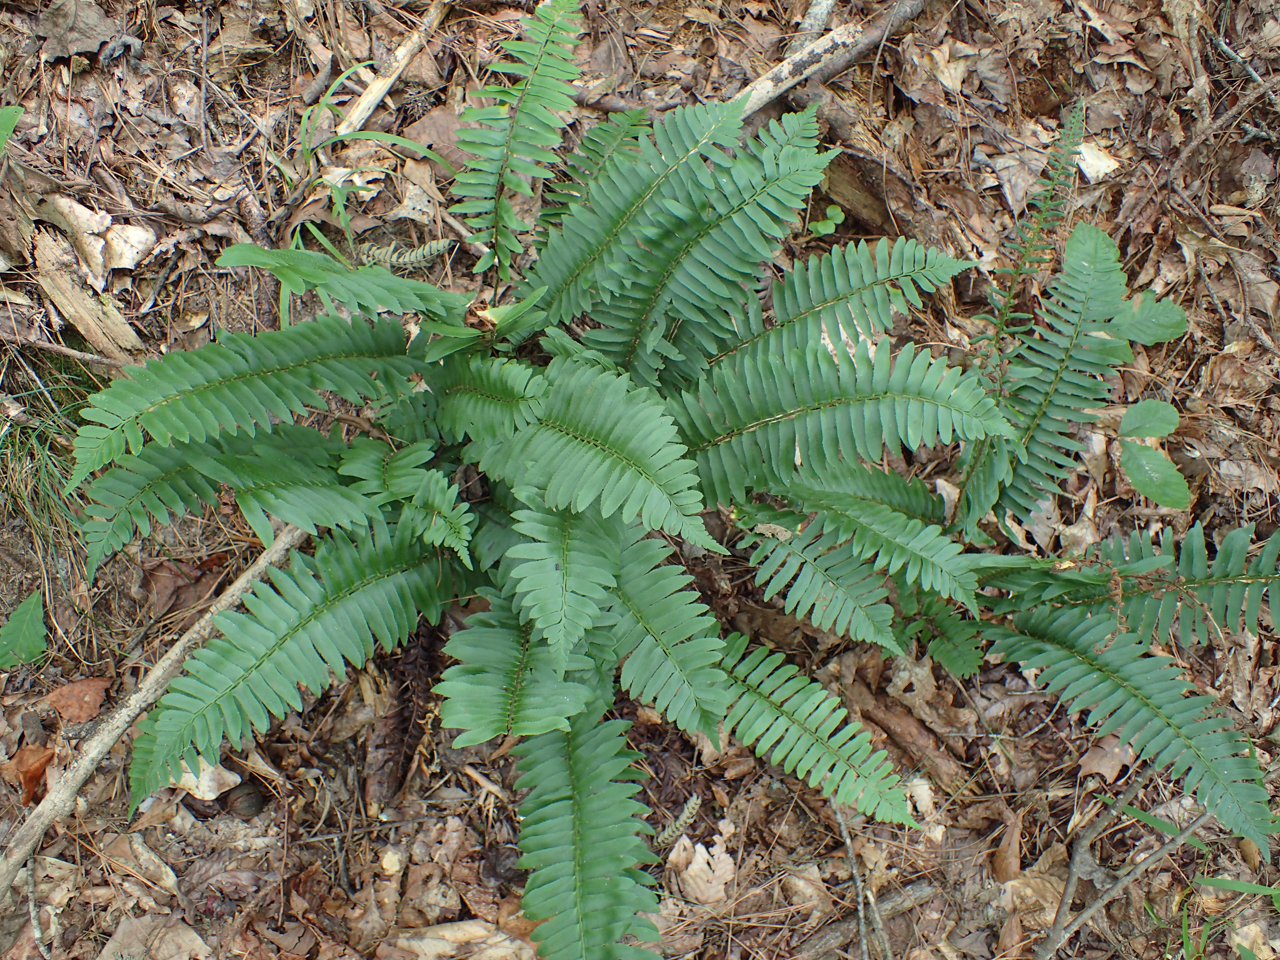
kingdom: Plantae
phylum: Tracheophyta
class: Polypodiopsida
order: Polypodiales
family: Dryopteridaceae
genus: Polystichum
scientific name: Polystichum acrostichoides
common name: Christmas fern
